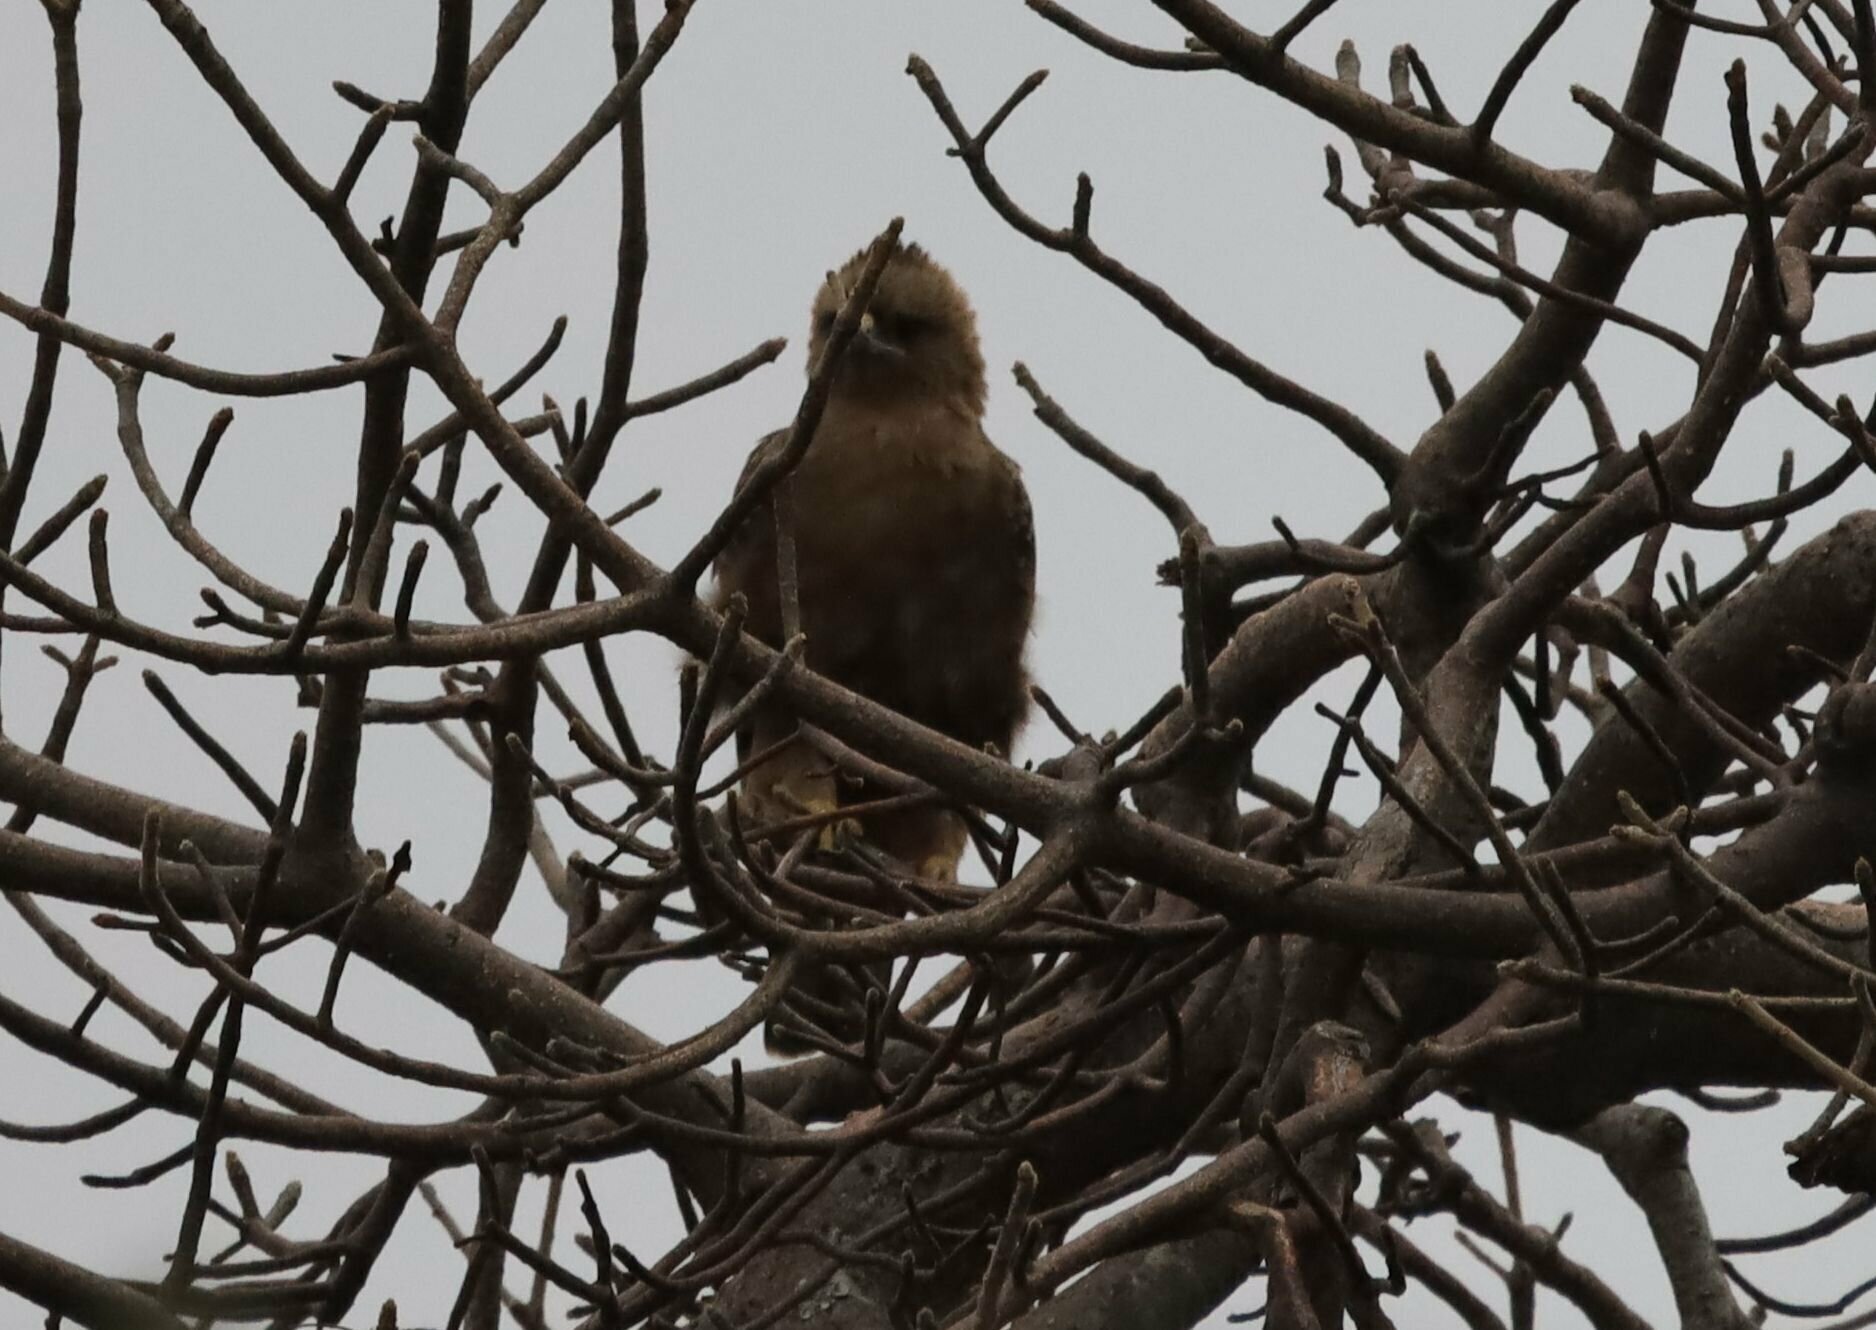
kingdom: Animalia
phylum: Chordata
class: Aves
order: Accipitriformes
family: Accipitridae
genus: Hieraaetus
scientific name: Hieraaetus wahlbergi
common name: Wahlberg's eagle
